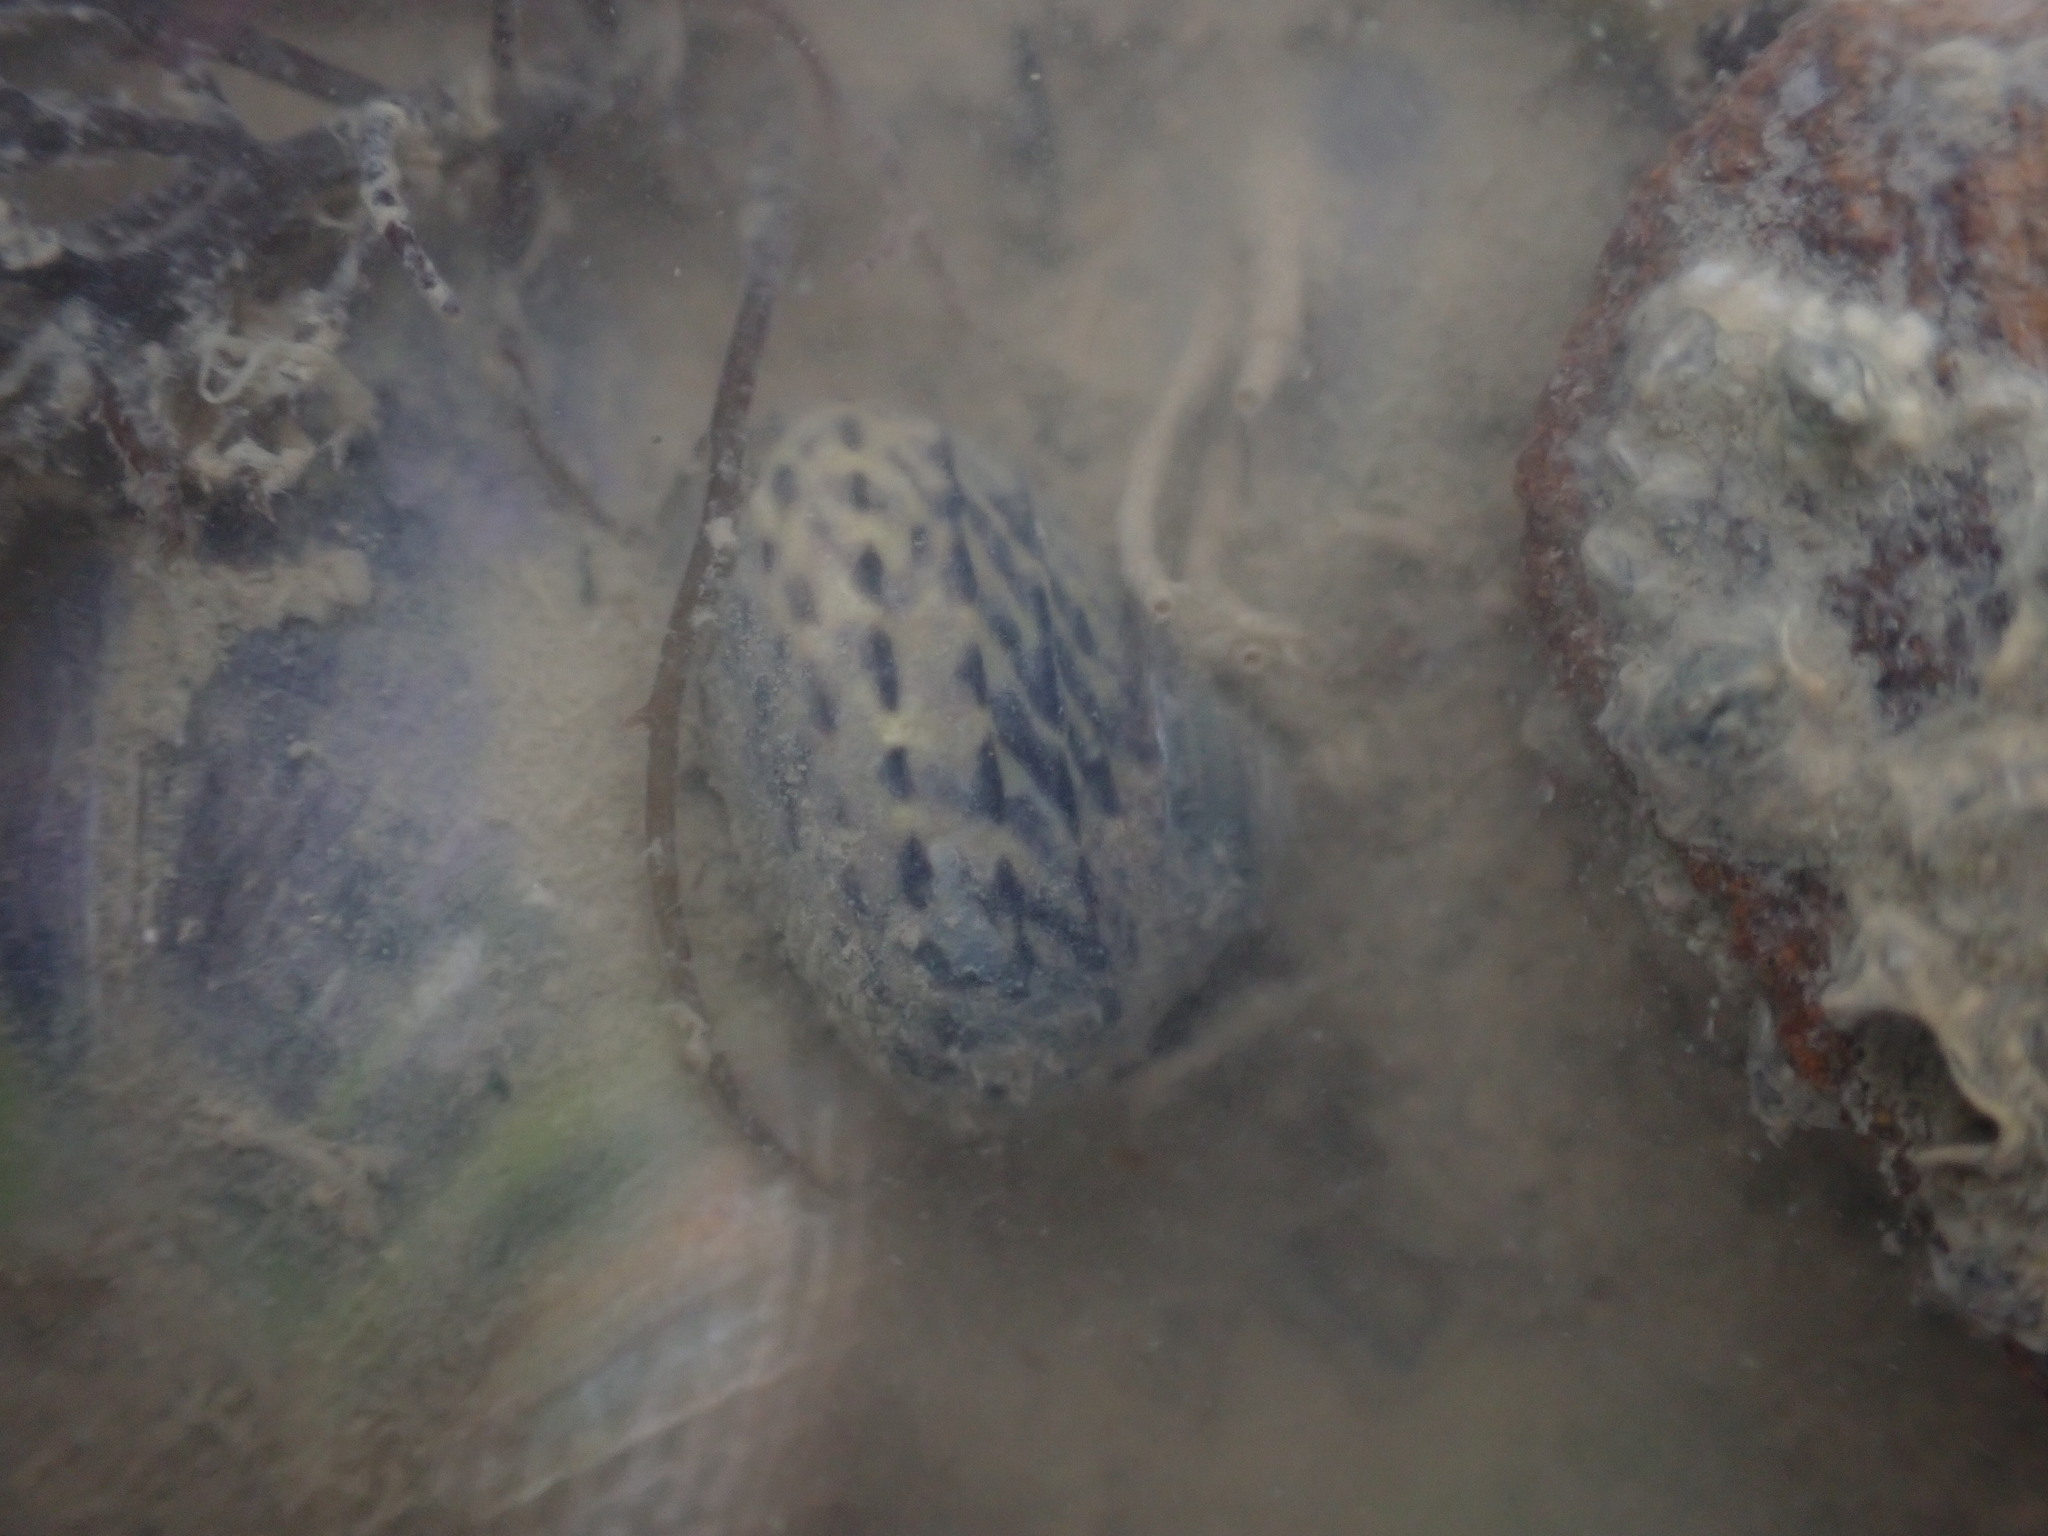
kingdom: Animalia
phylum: Mollusca
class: Gastropoda
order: Trochida
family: Trochidae
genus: Diloma
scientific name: Diloma subrostratum
